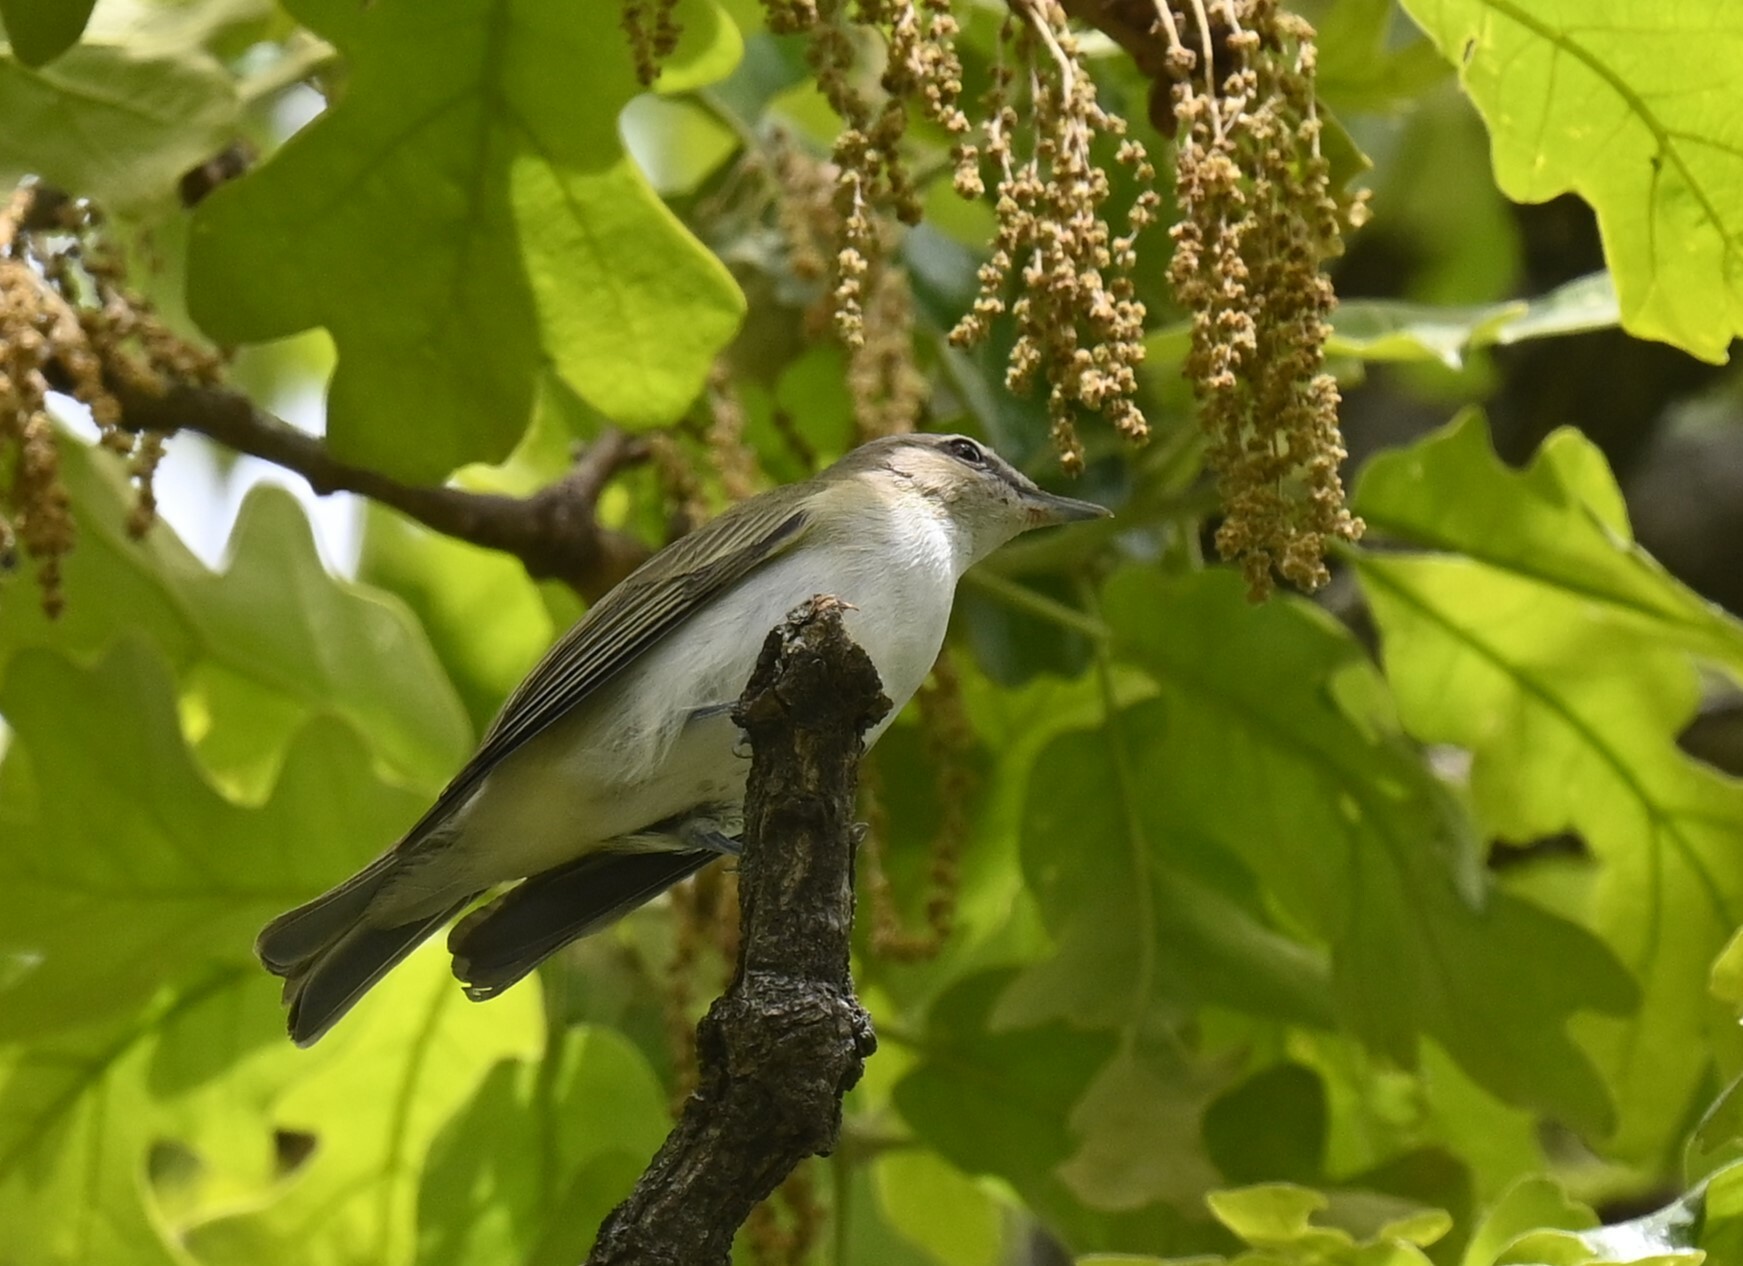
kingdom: Animalia
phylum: Chordata
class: Aves
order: Passeriformes
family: Vireonidae
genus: Vireo
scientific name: Vireo olivaceus
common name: Red-eyed vireo
